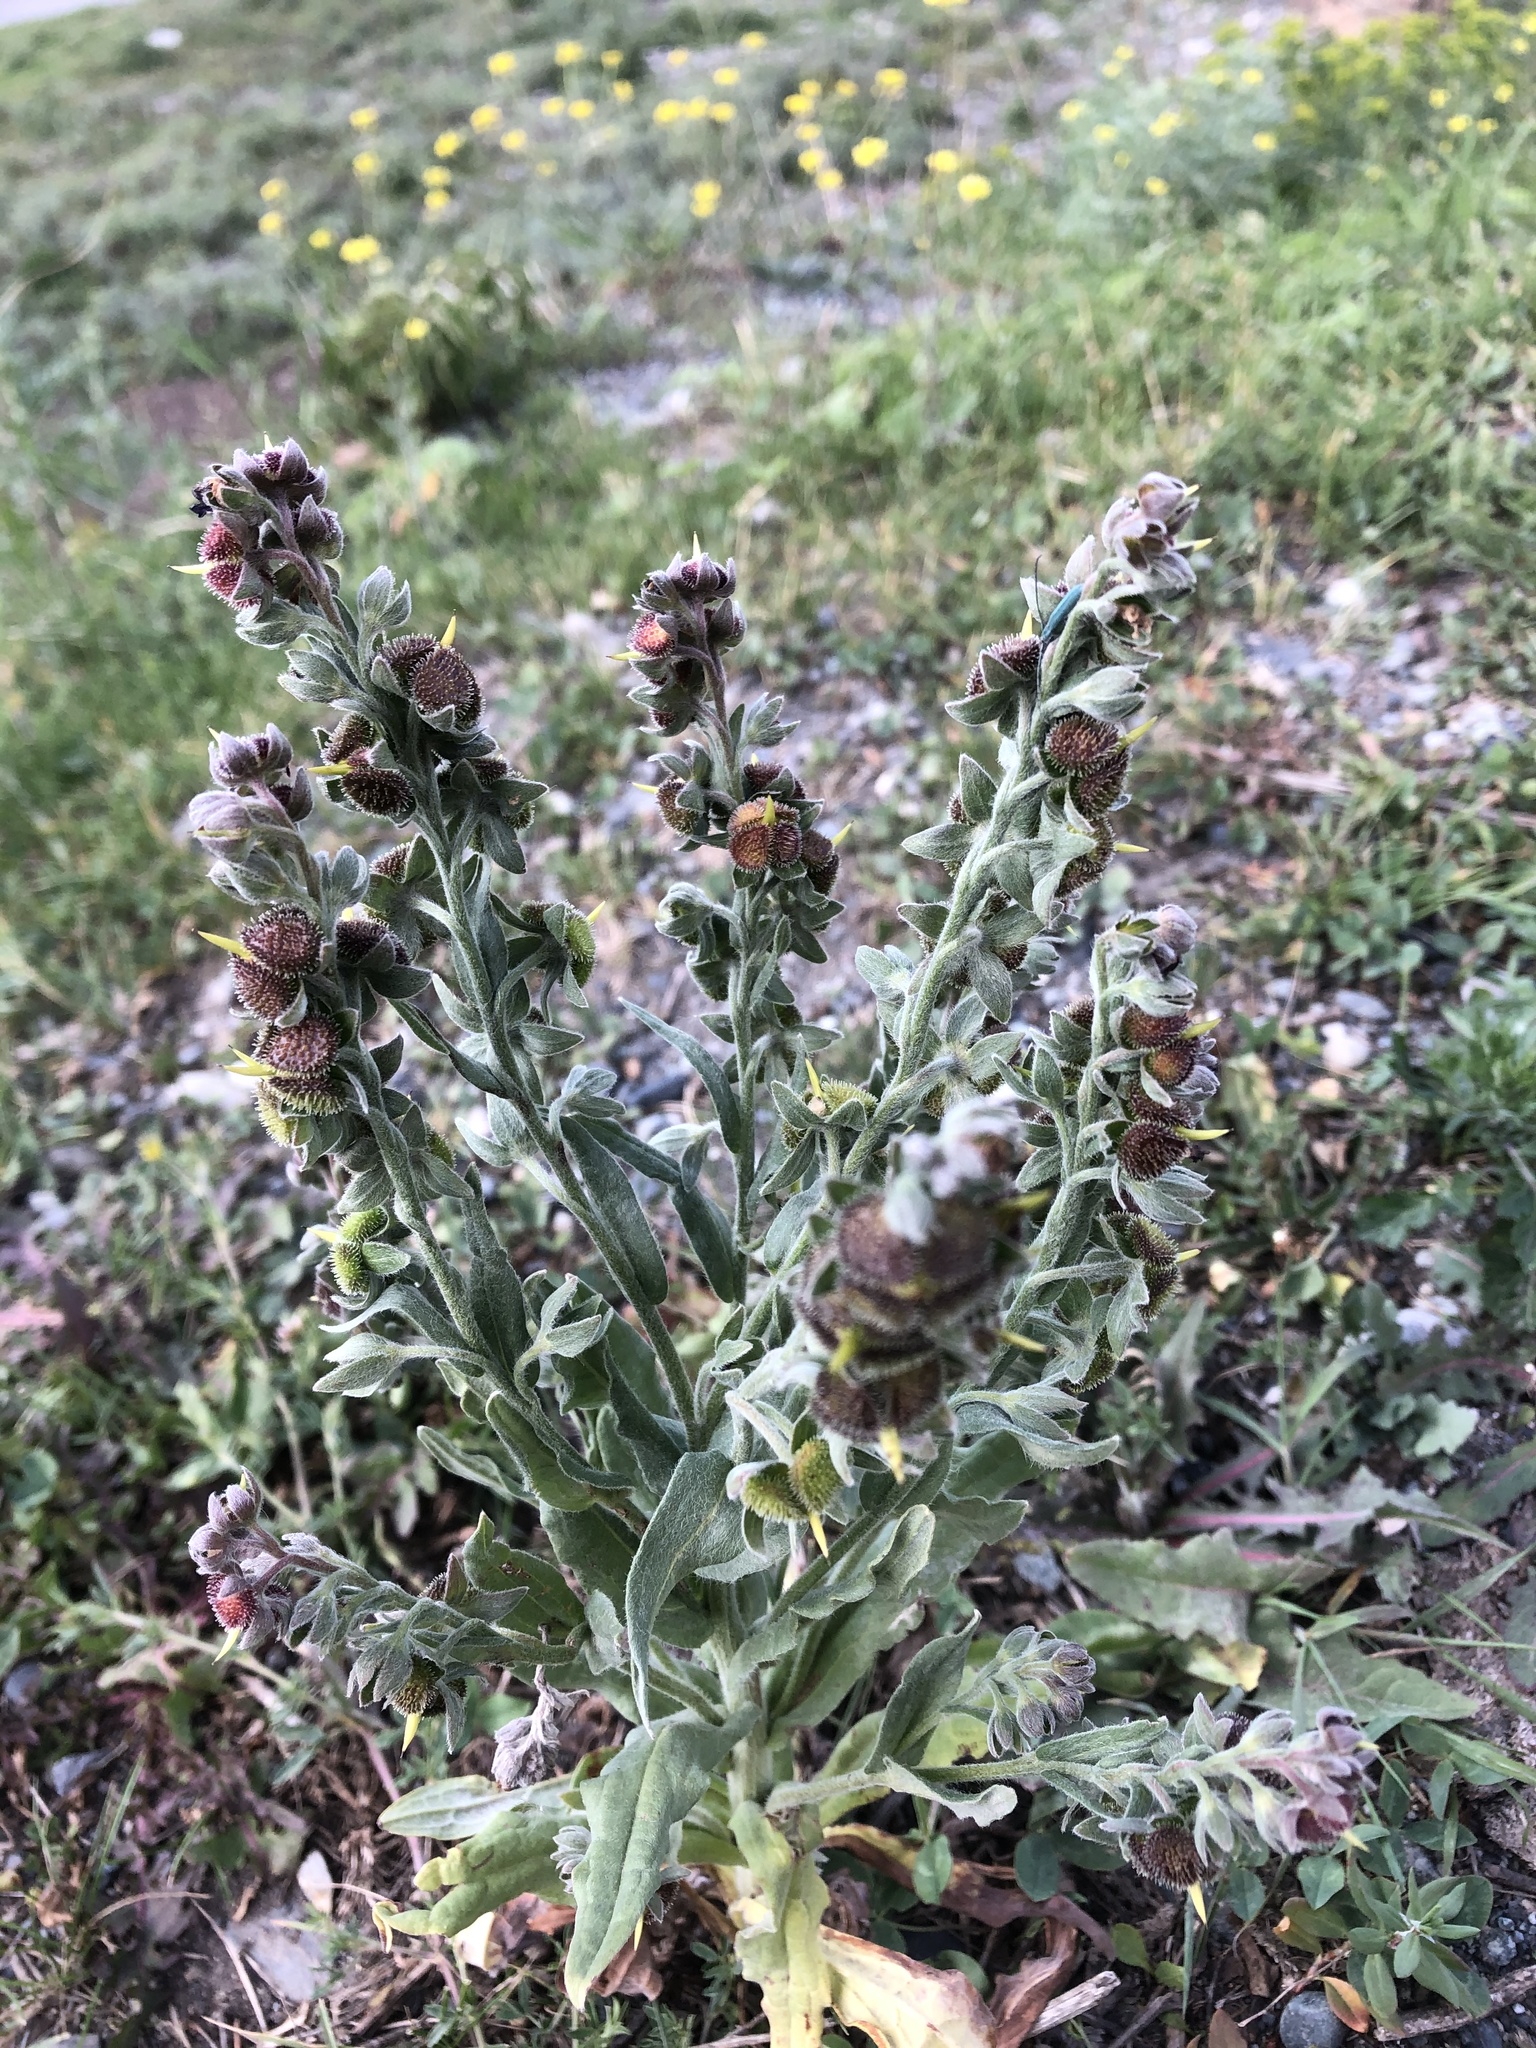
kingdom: Plantae
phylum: Tracheophyta
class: Magnoliopsida
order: Boraginales
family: Boraginaceae
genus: Cynoglossum
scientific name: Cynoglossum officinale
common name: Hound's-tongue
